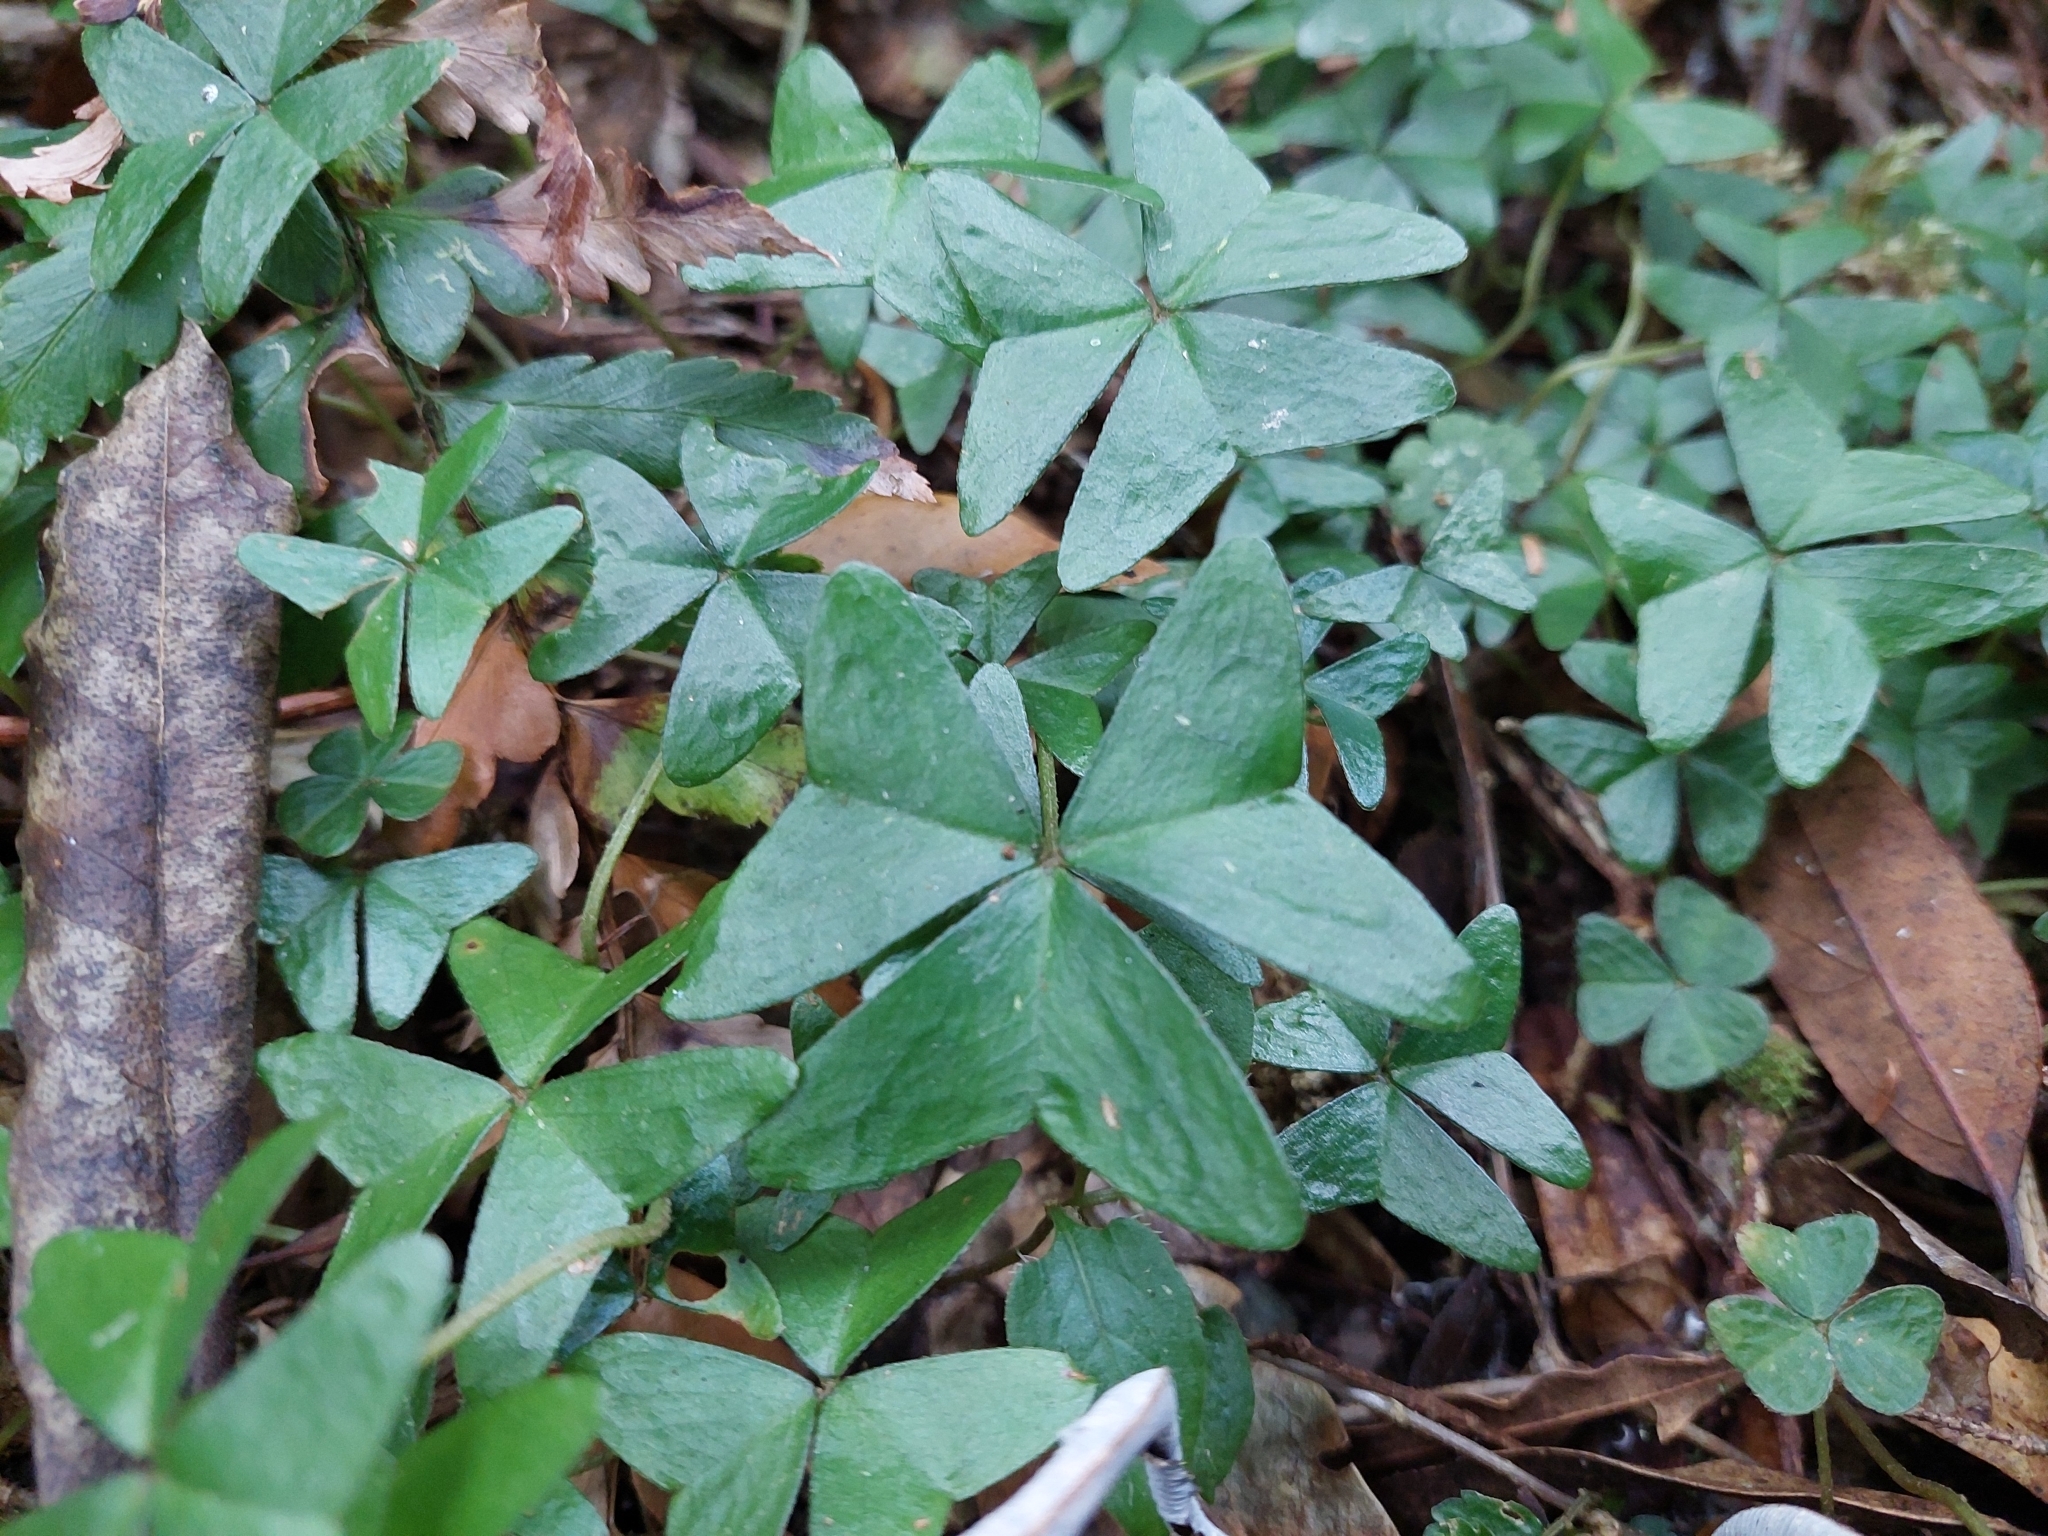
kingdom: Plantae
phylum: Tracheophyta
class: Magnoliopsida
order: Oxalidales
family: Oxalidaceae
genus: Oxalis
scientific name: Oxalis griffithii
